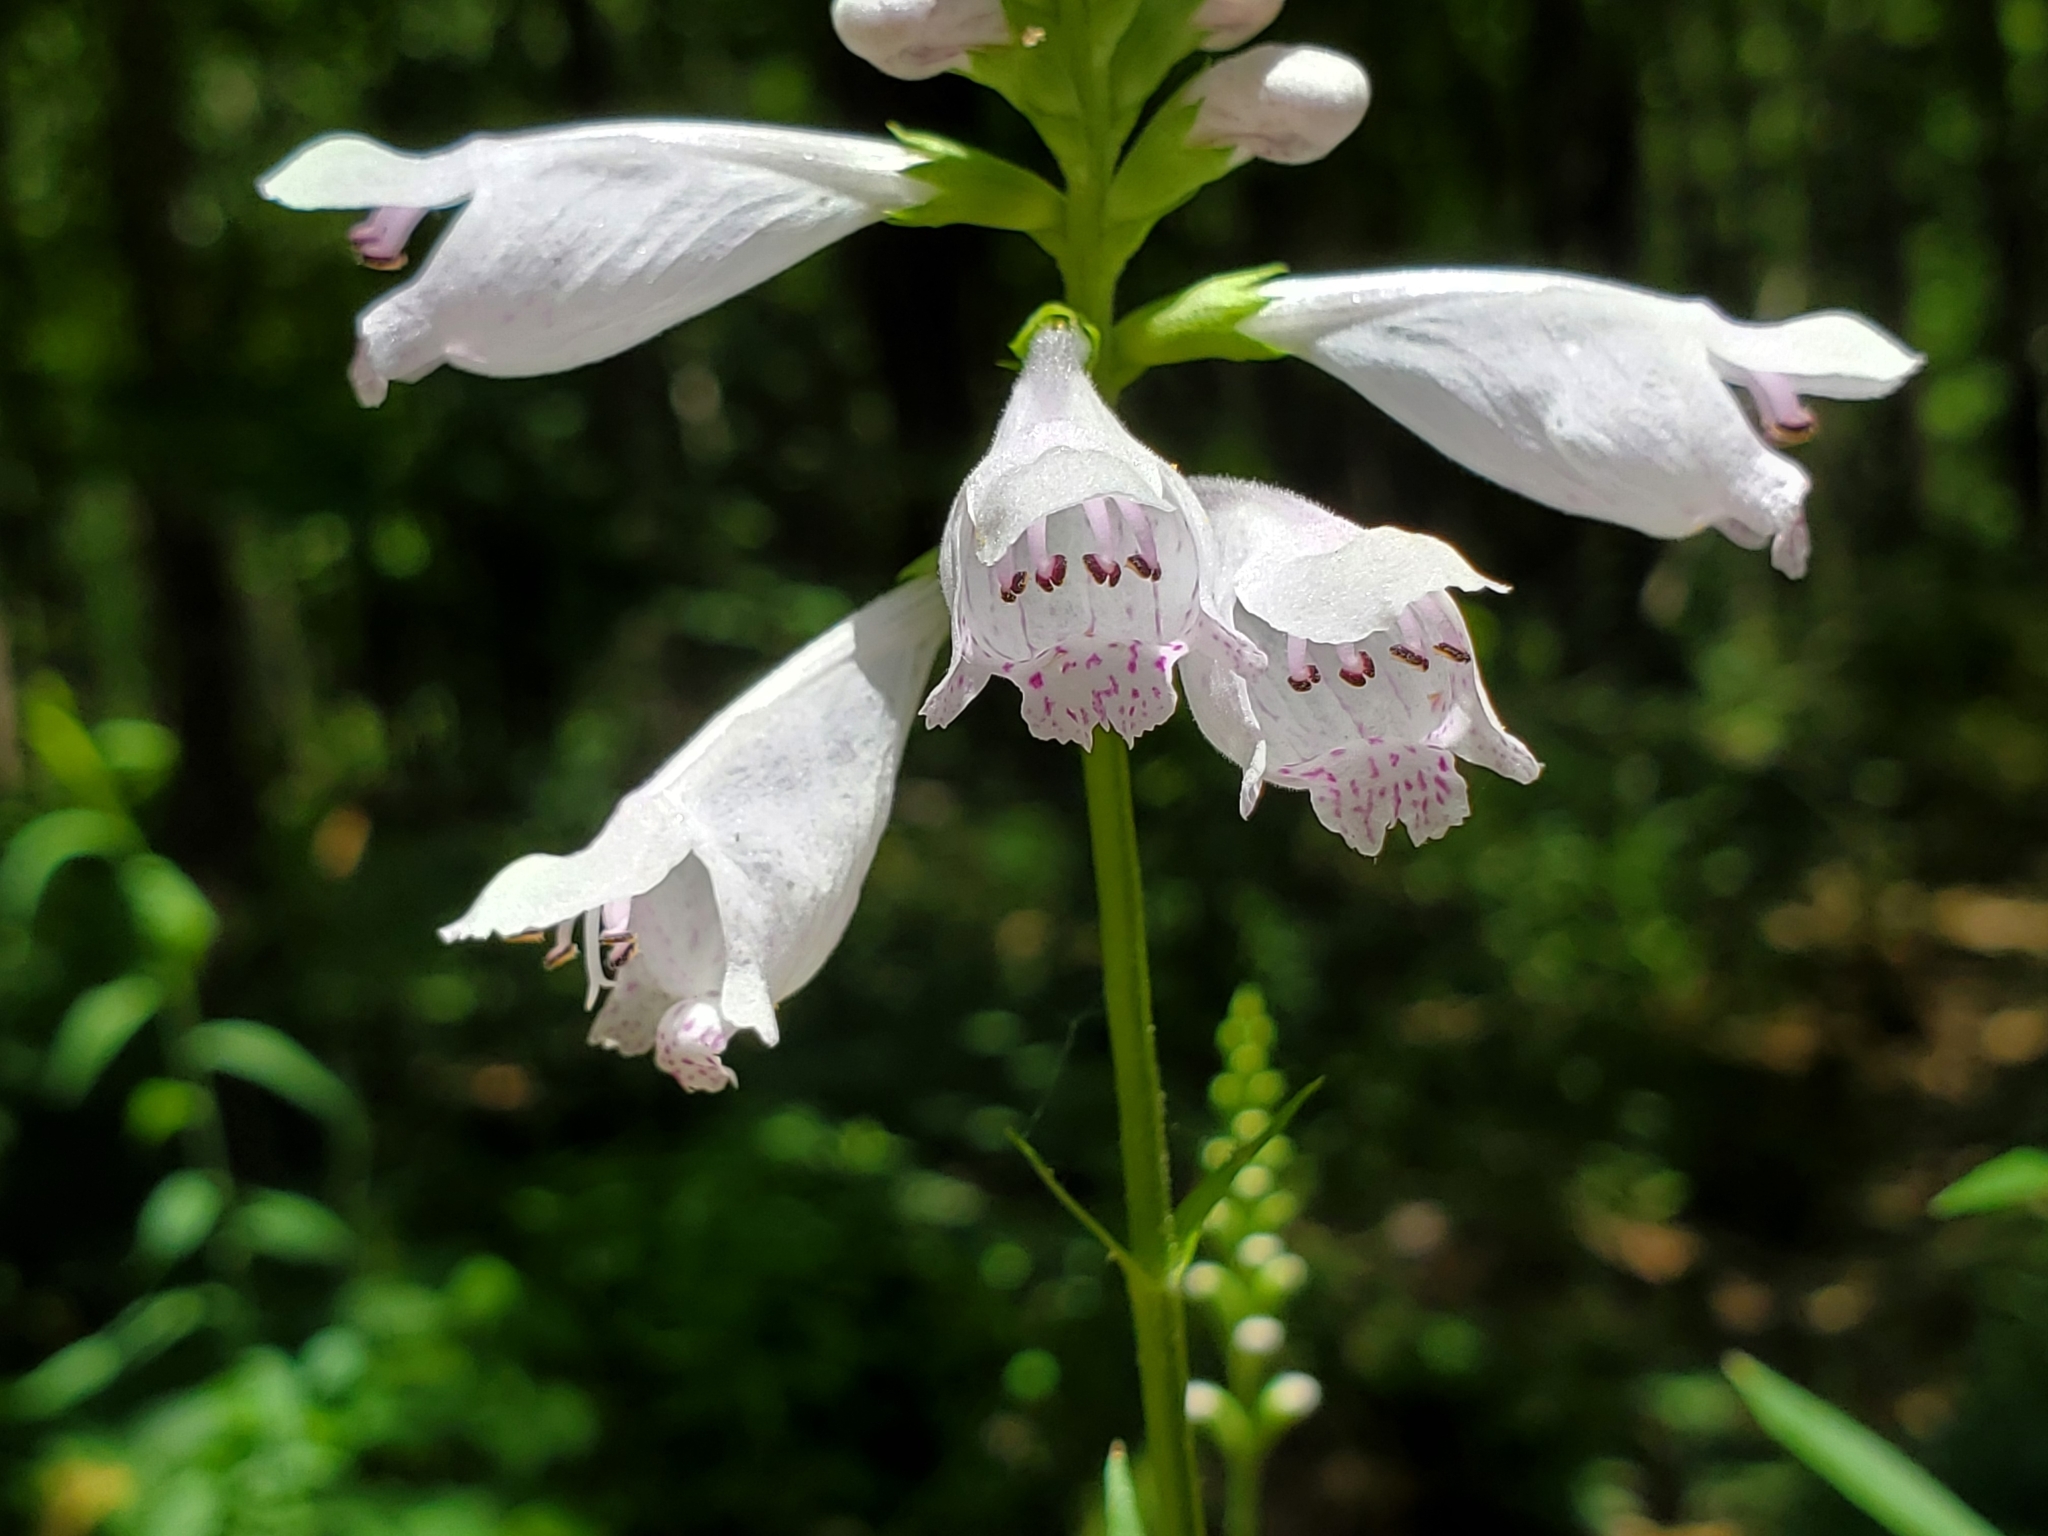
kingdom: Plantae
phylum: Tracheophyta
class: Magnoliopsida
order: Lamiales
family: Lamiaceae
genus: Physostegia
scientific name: Physostegia angustifolia
